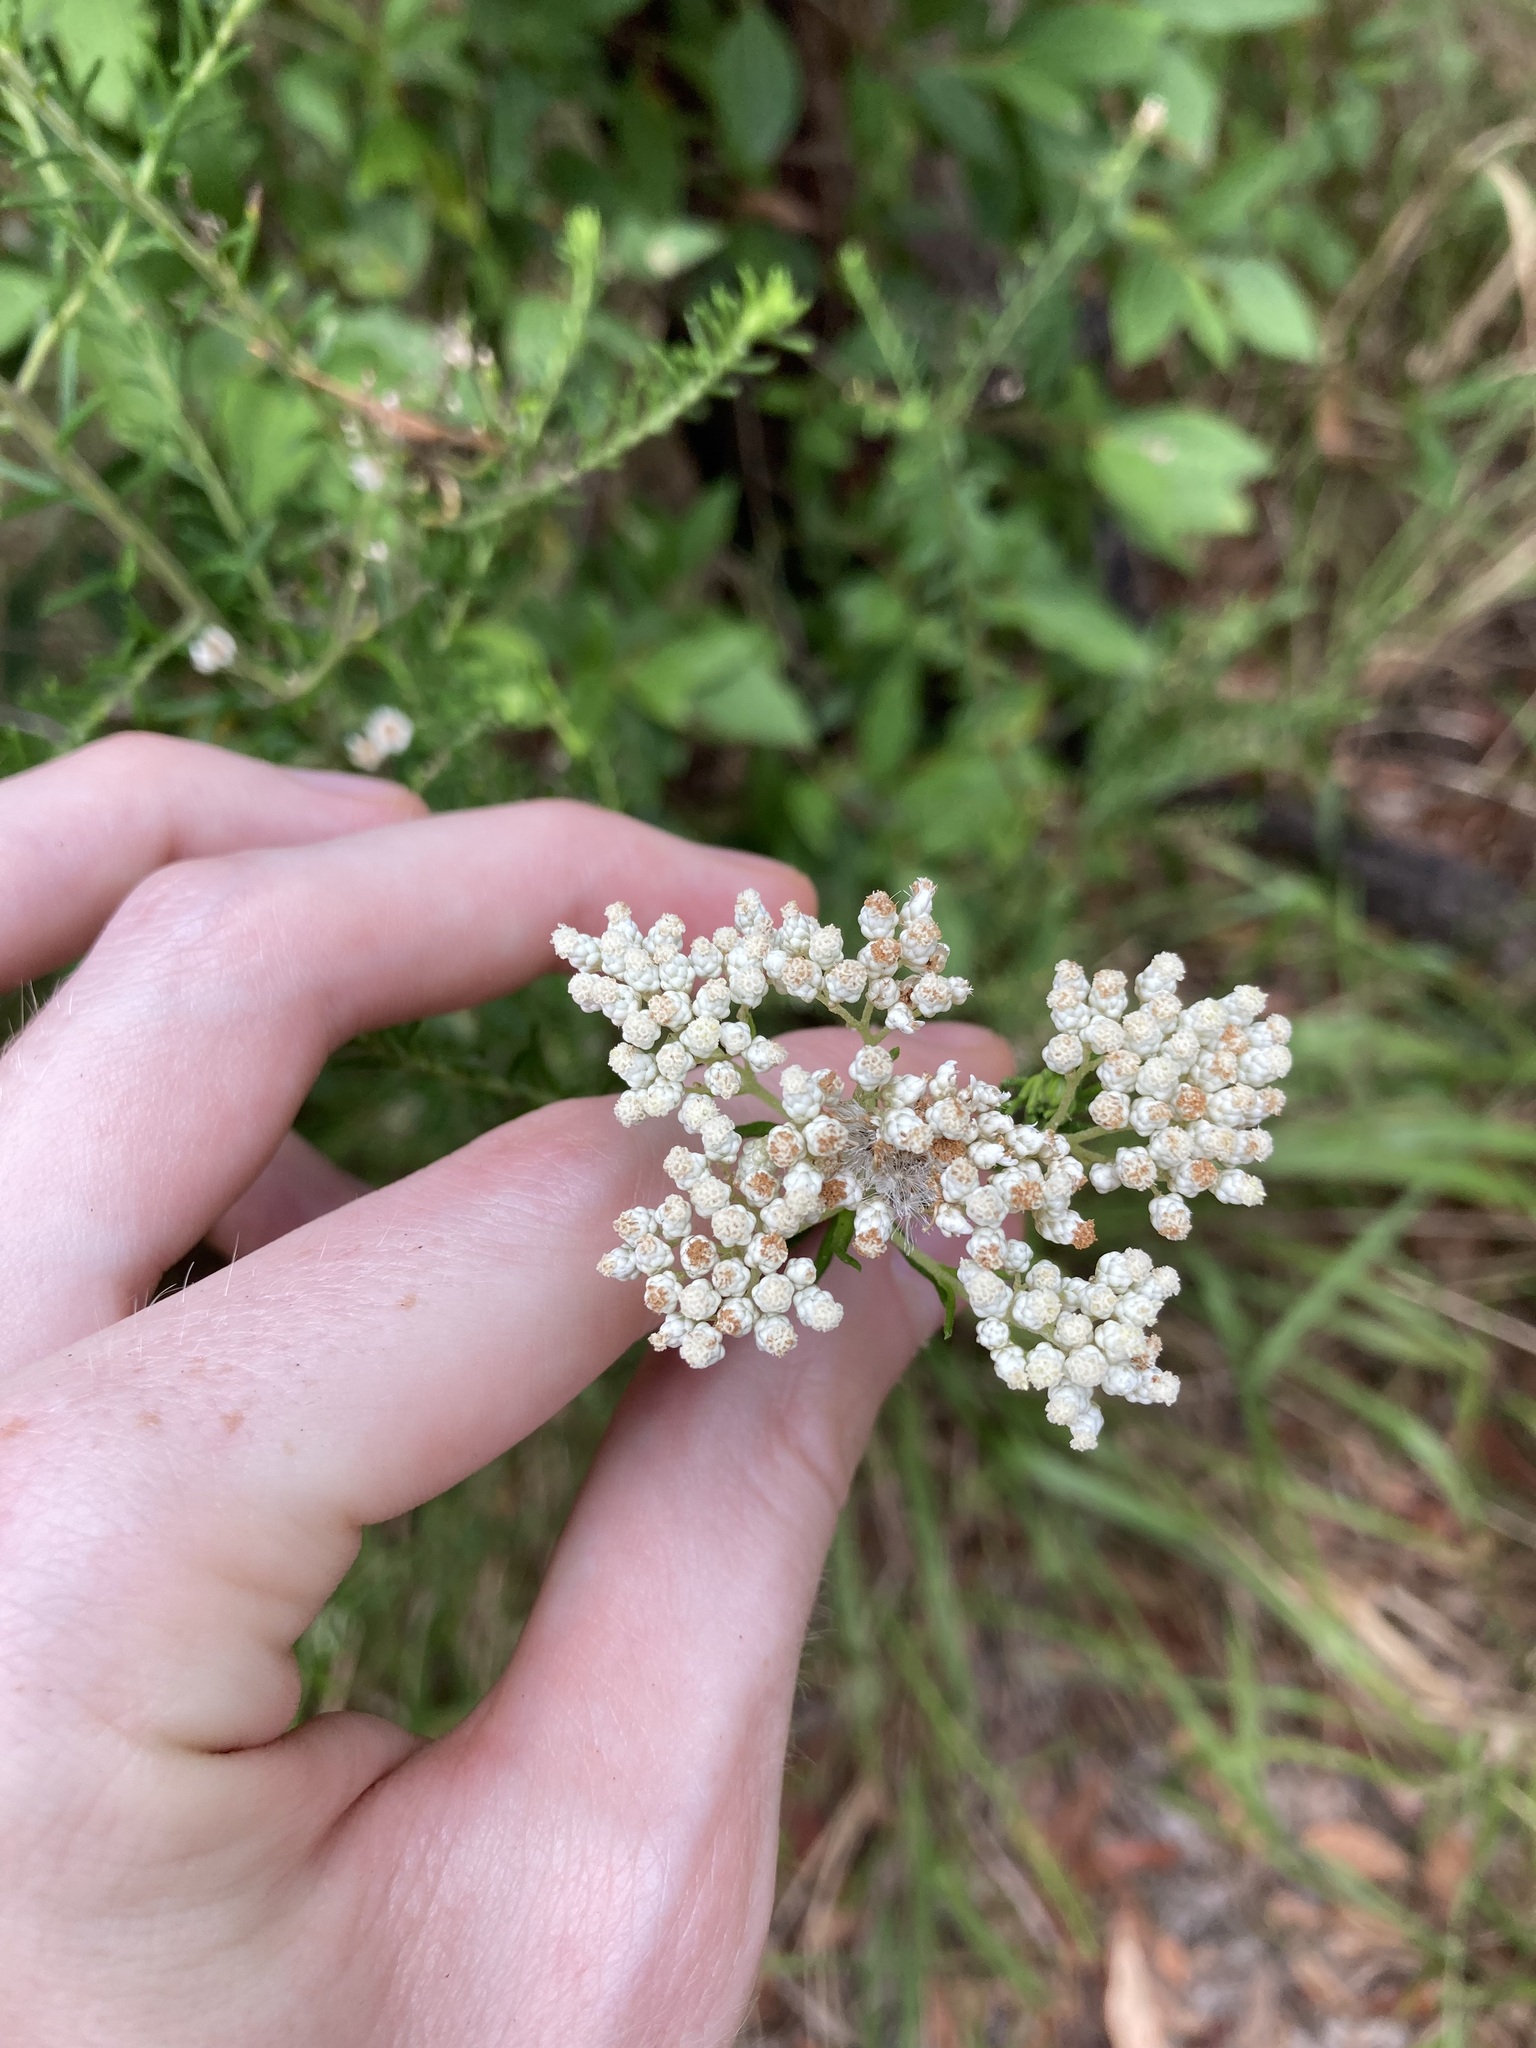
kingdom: Plantae
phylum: Tracheophyta
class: Magnoliopsida
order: Asterales
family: Asteraceae
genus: Ozothamnus
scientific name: Ozothamnus diosmifolius
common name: White-dogwood
